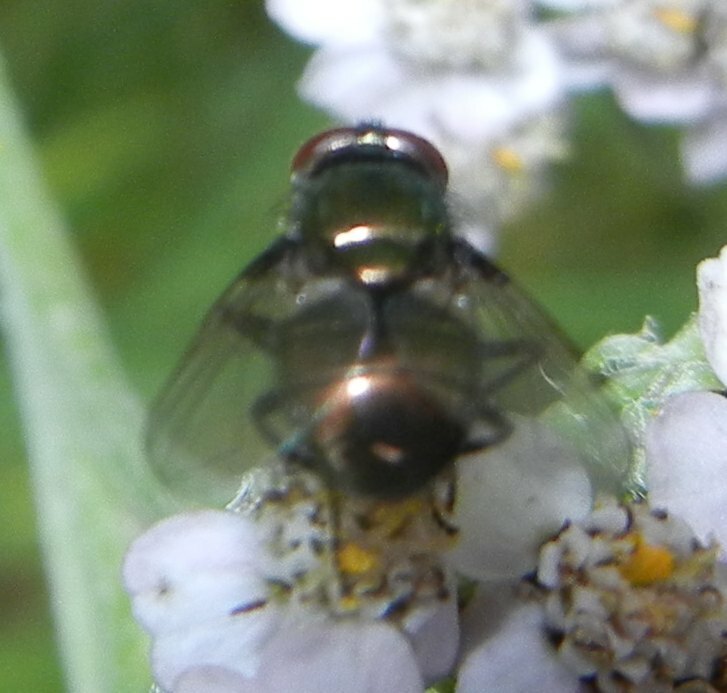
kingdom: Animalia
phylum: Arthropoda
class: Insecta
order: Diptera
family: Muscidae
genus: Neomyia
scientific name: Neomyia cornicina
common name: House fly
